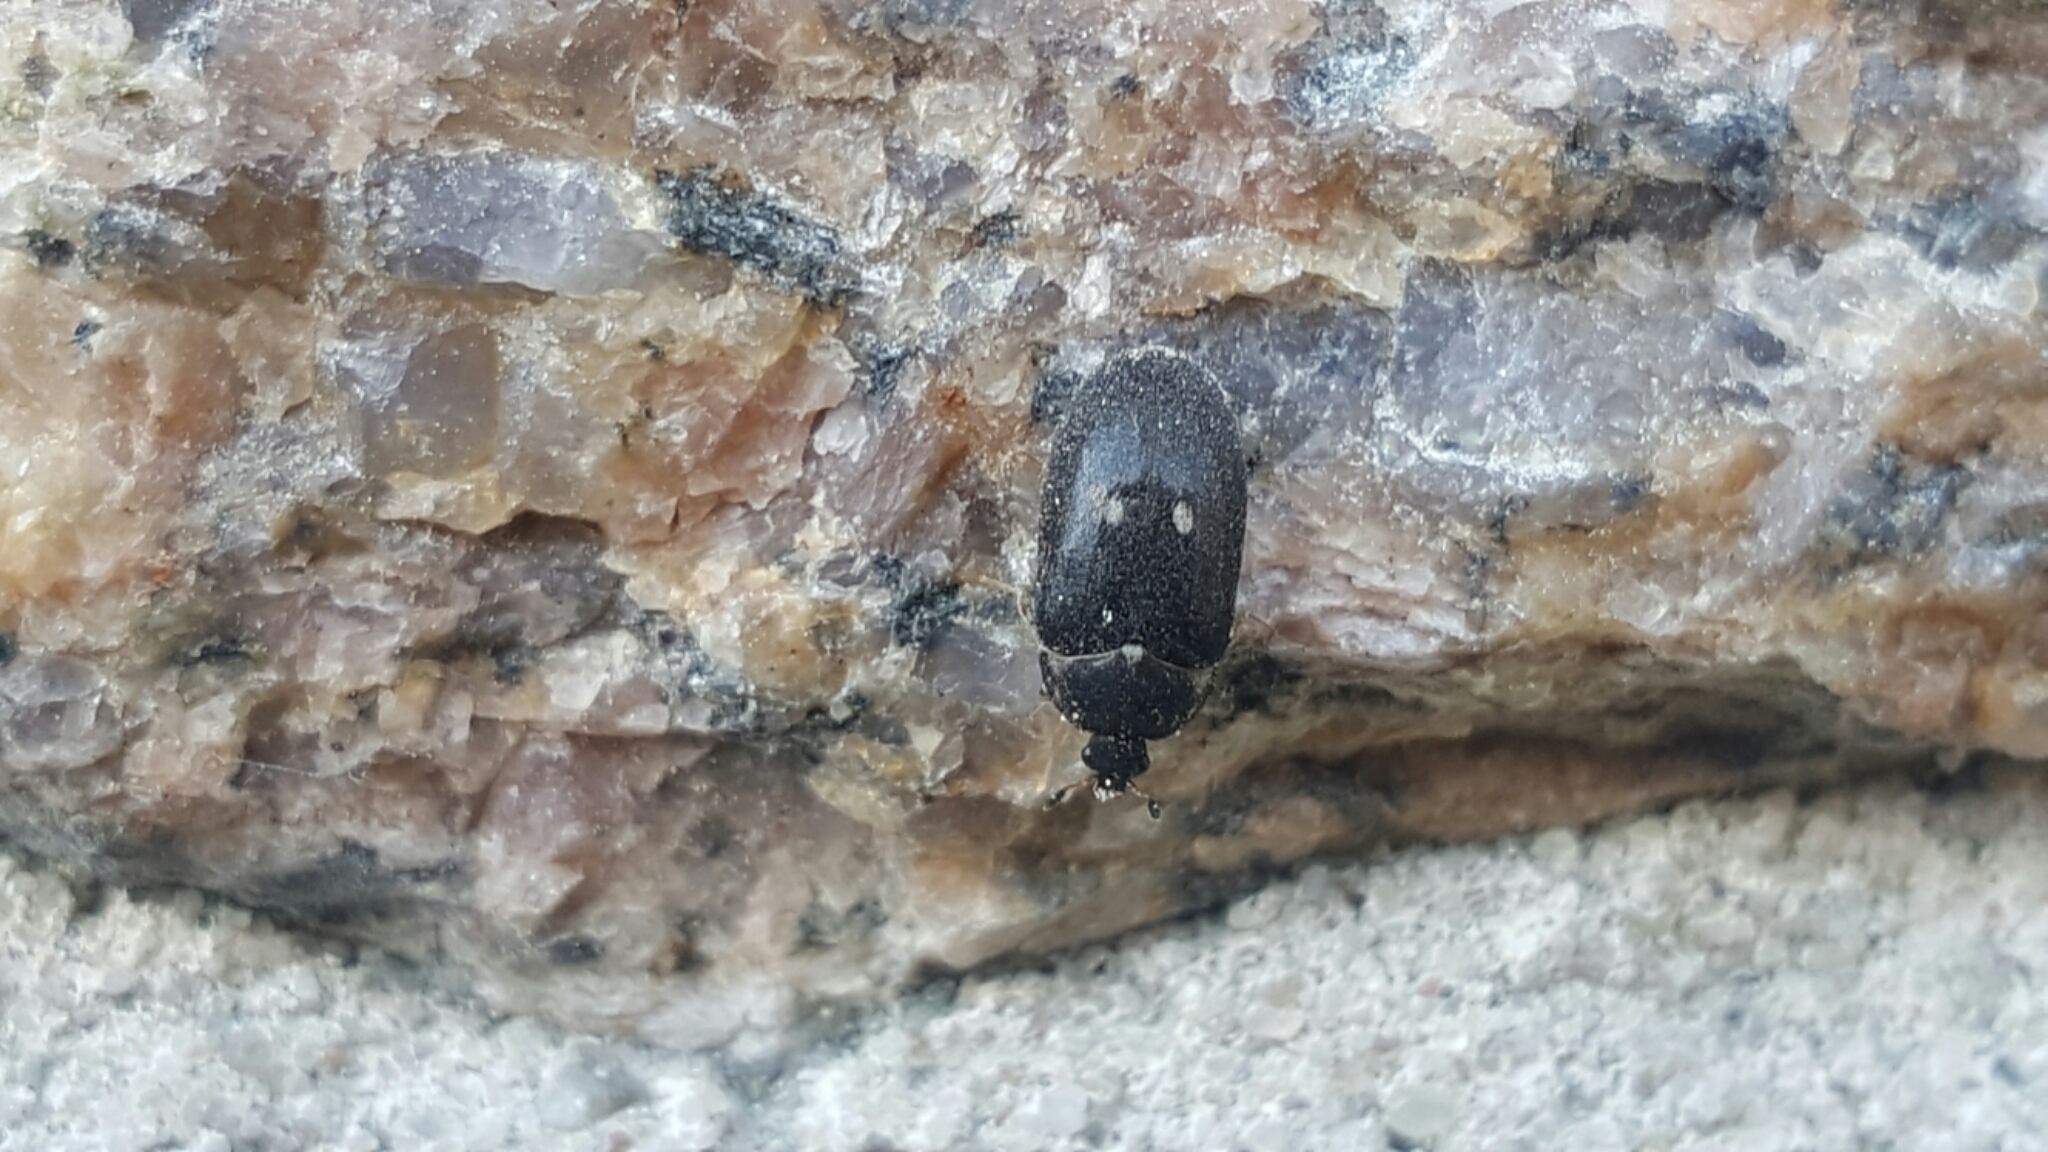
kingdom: Animalia
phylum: Arthropoda
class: Insecta
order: Coleoptera
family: Dermestidae
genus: Attagenus
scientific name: Attagenus pellio
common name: Two-spotted carpet beetle
